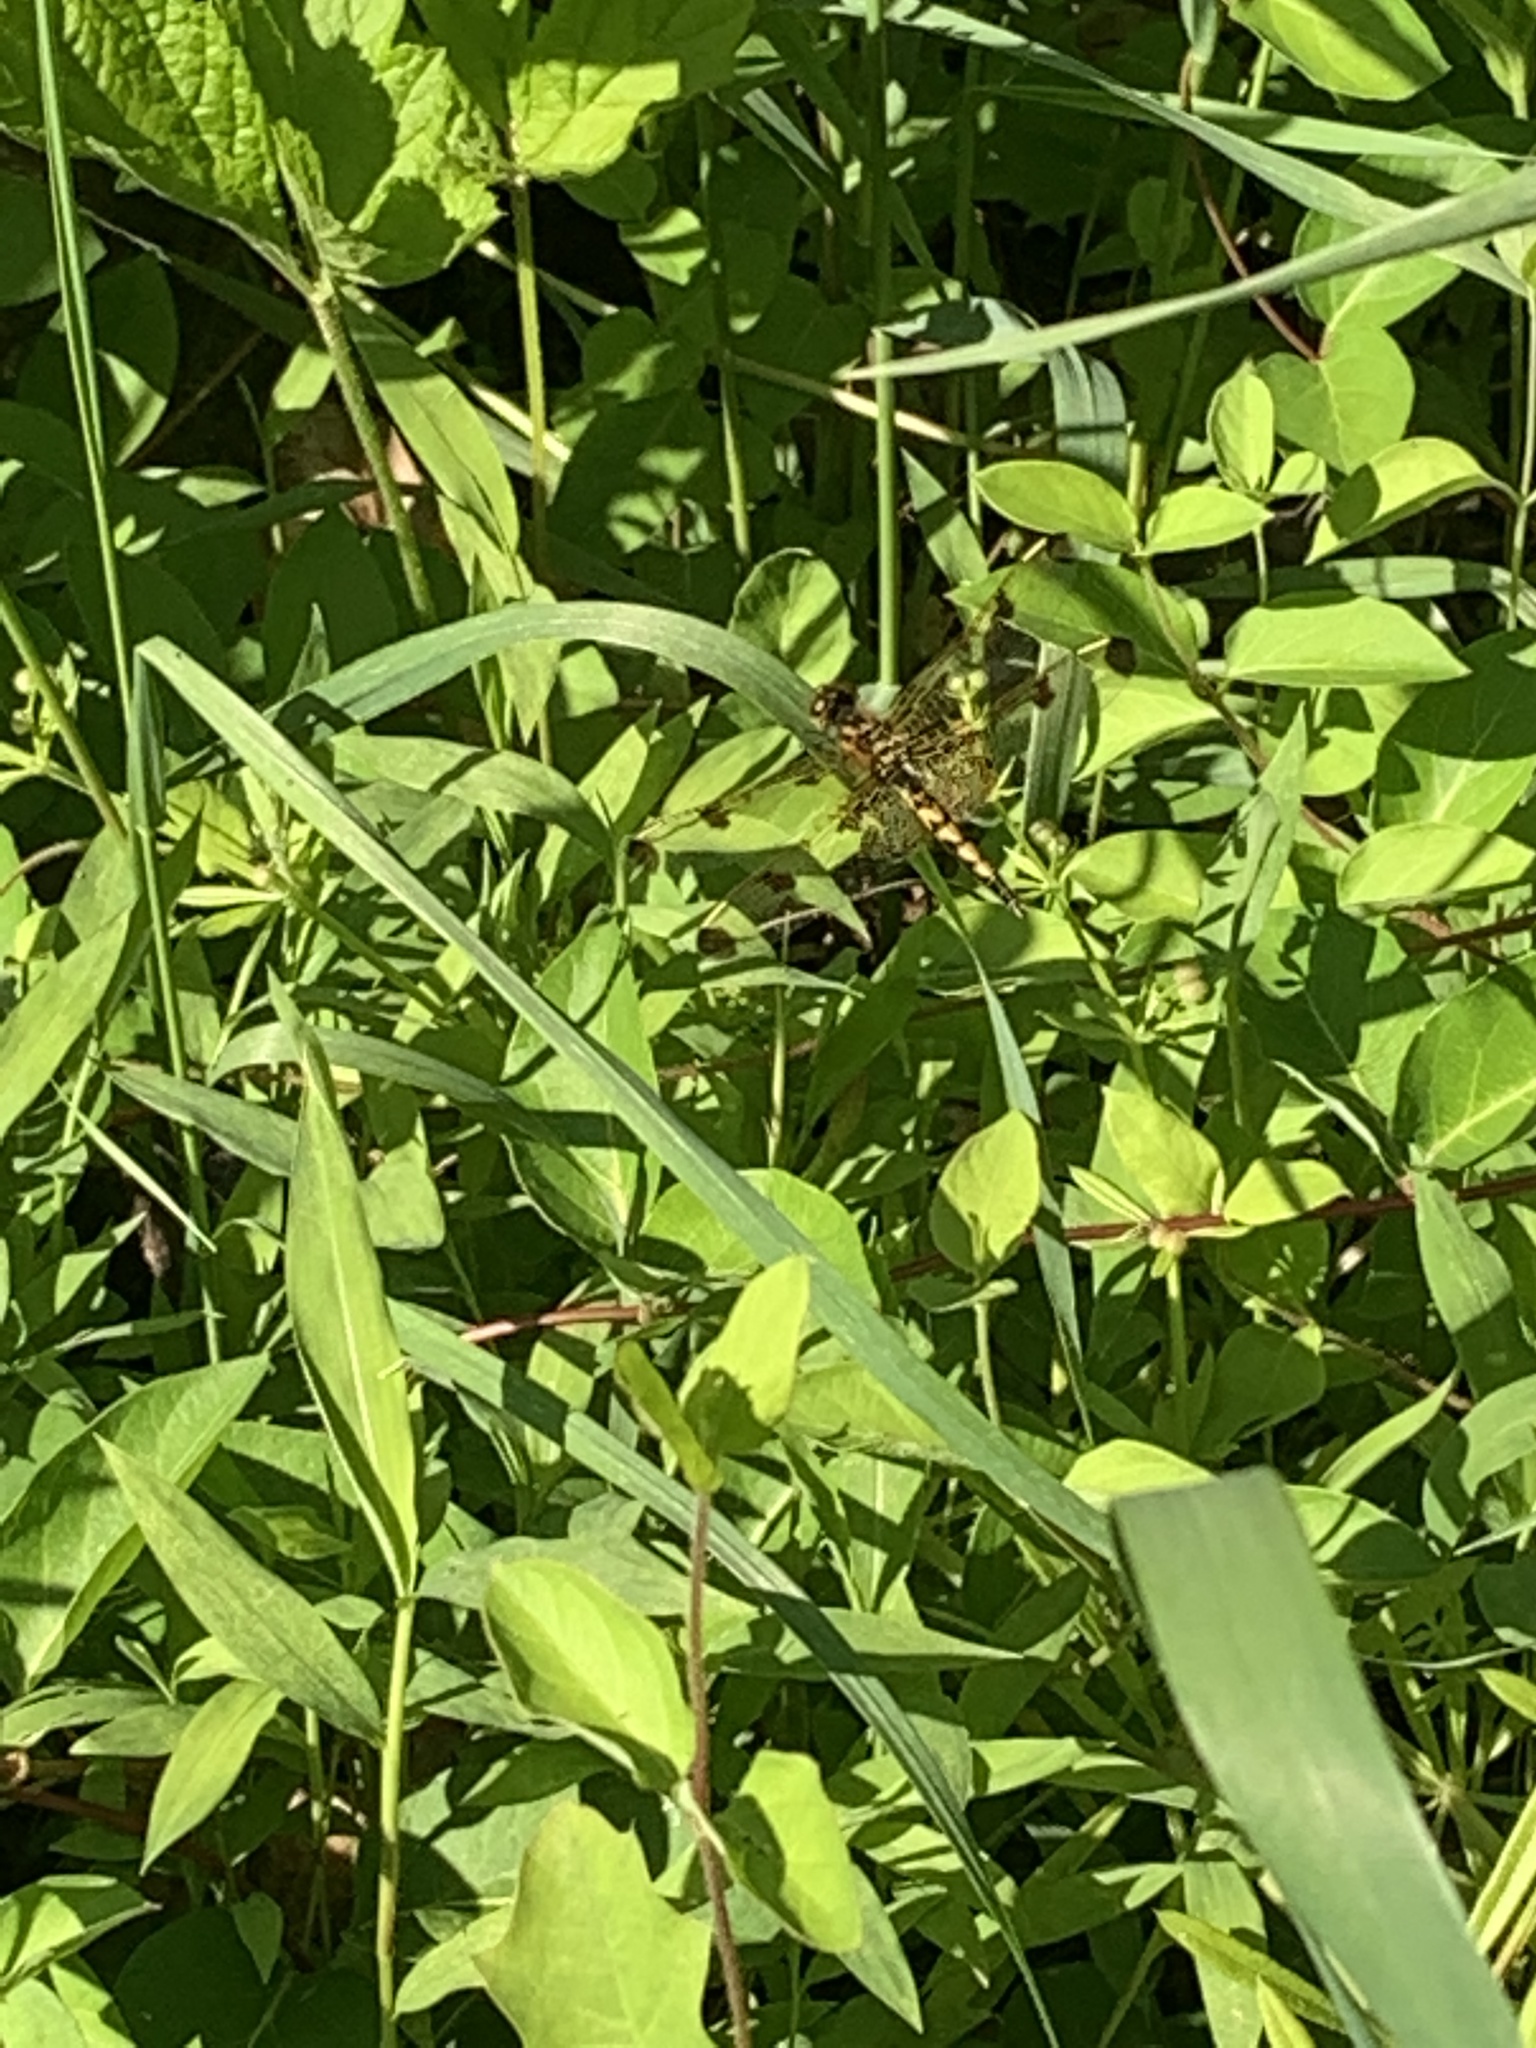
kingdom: Animalia
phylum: Arthropoda
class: Insecta
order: Odonata
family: Libellulidae
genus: Celithemis
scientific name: Celithemis elisa
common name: Calico pennant
